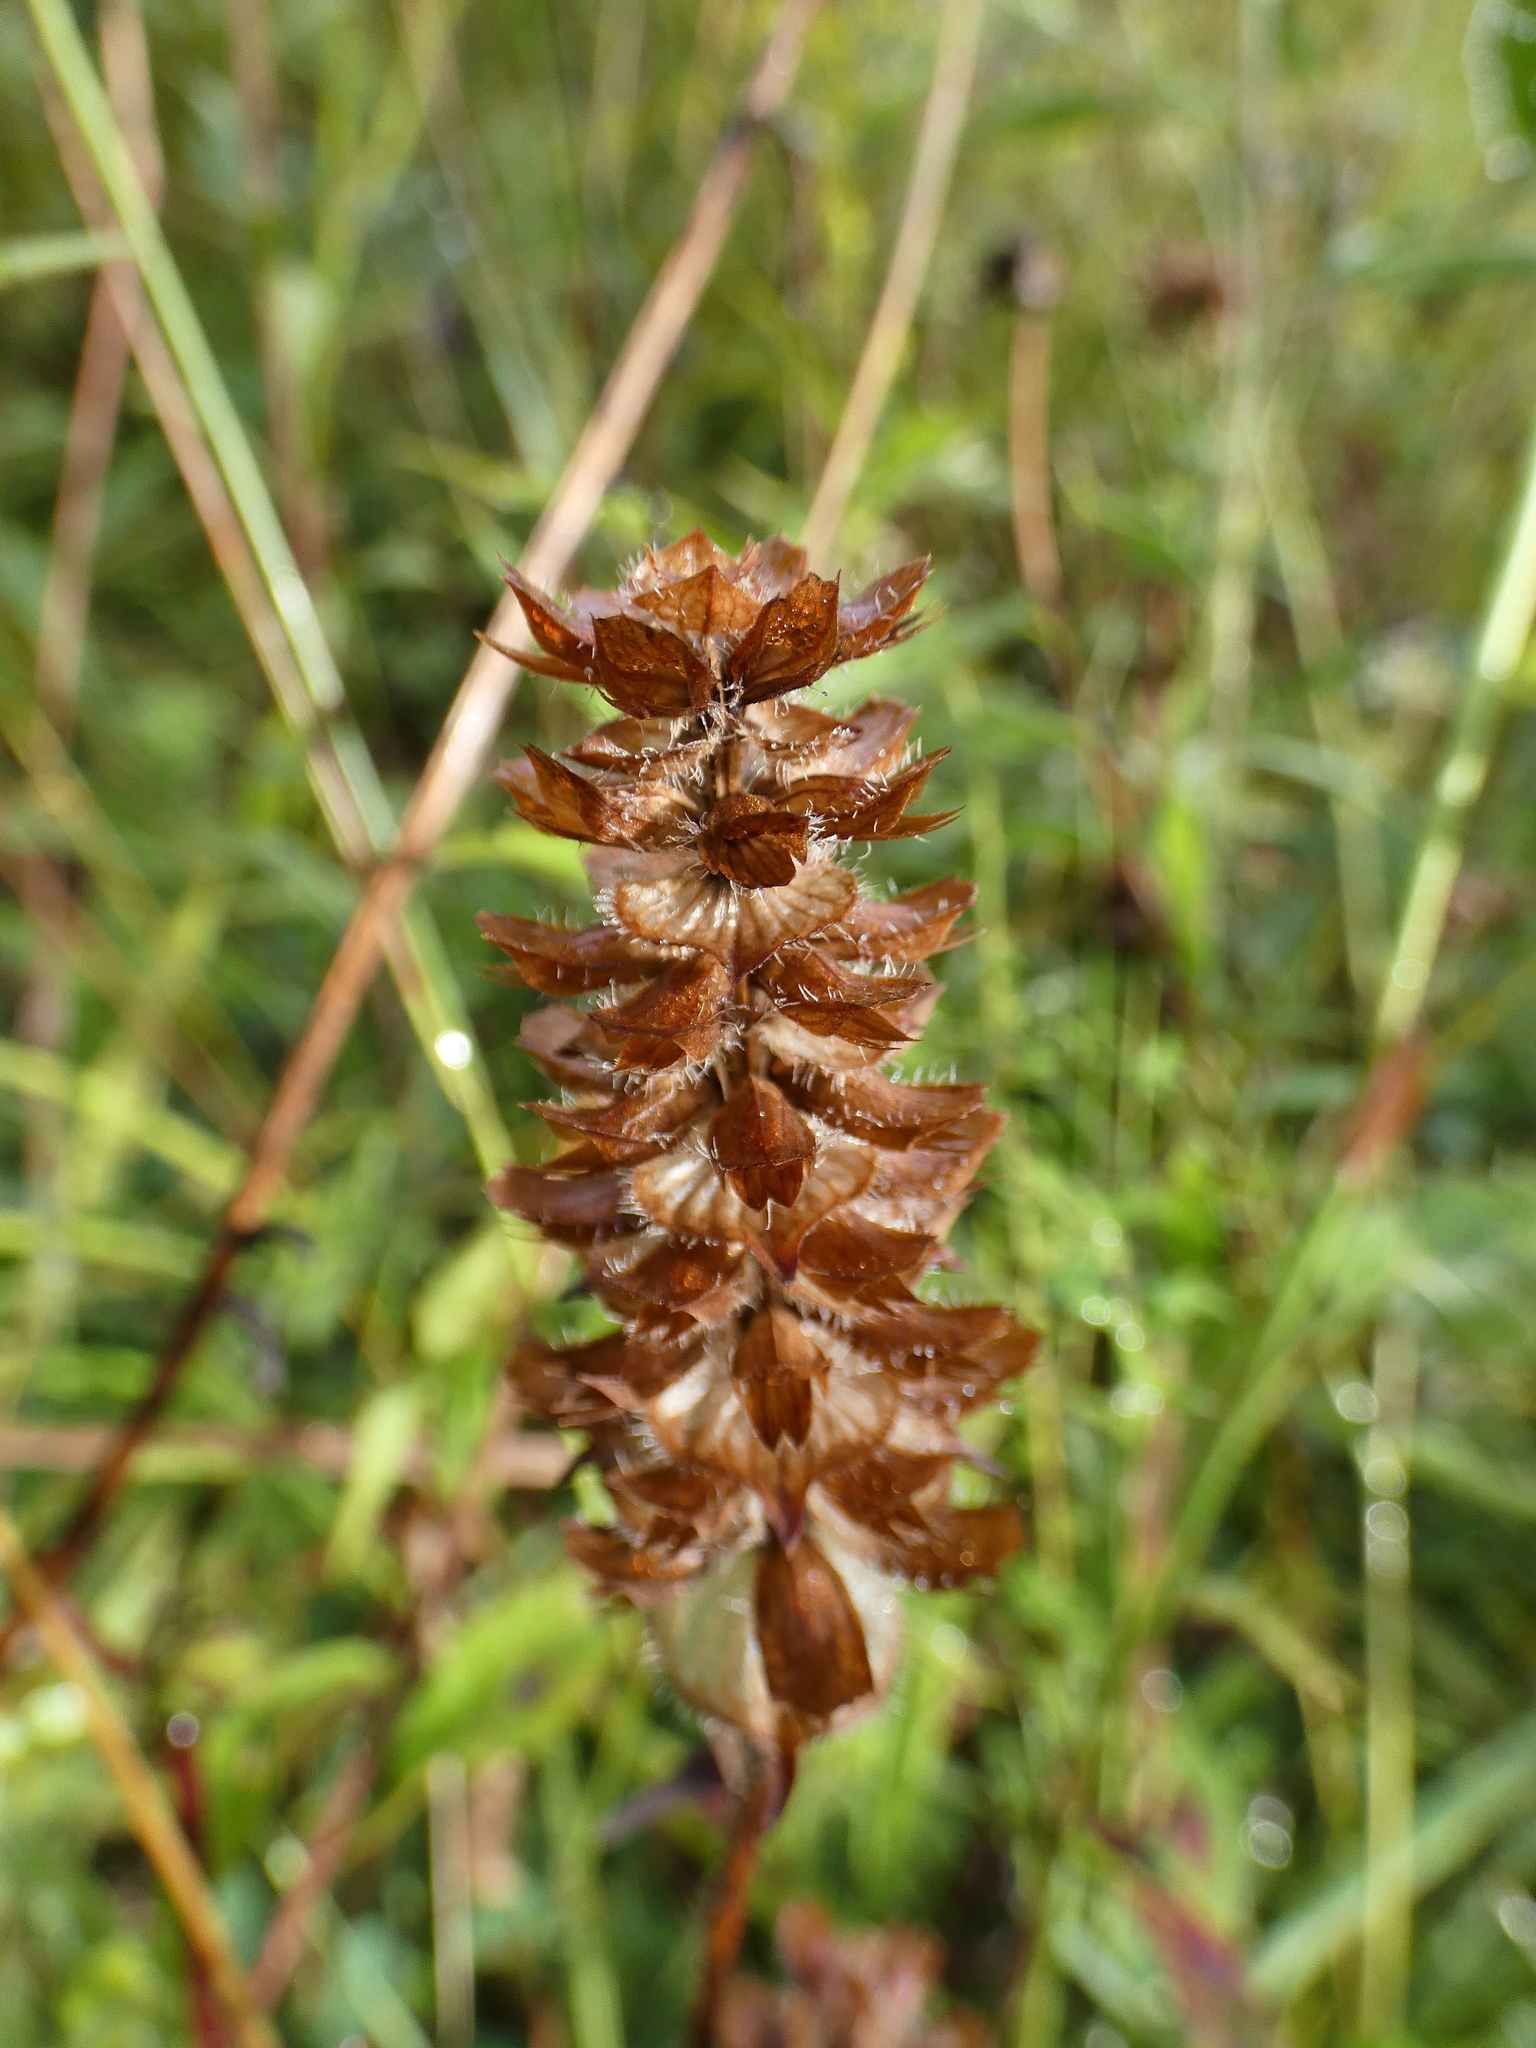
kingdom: Plantae
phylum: Tracheophyta
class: Magnoliopsida
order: Lamiales
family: Lamiaceae
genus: Prunella
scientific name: Prunella vulgaris
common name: Heal-all
